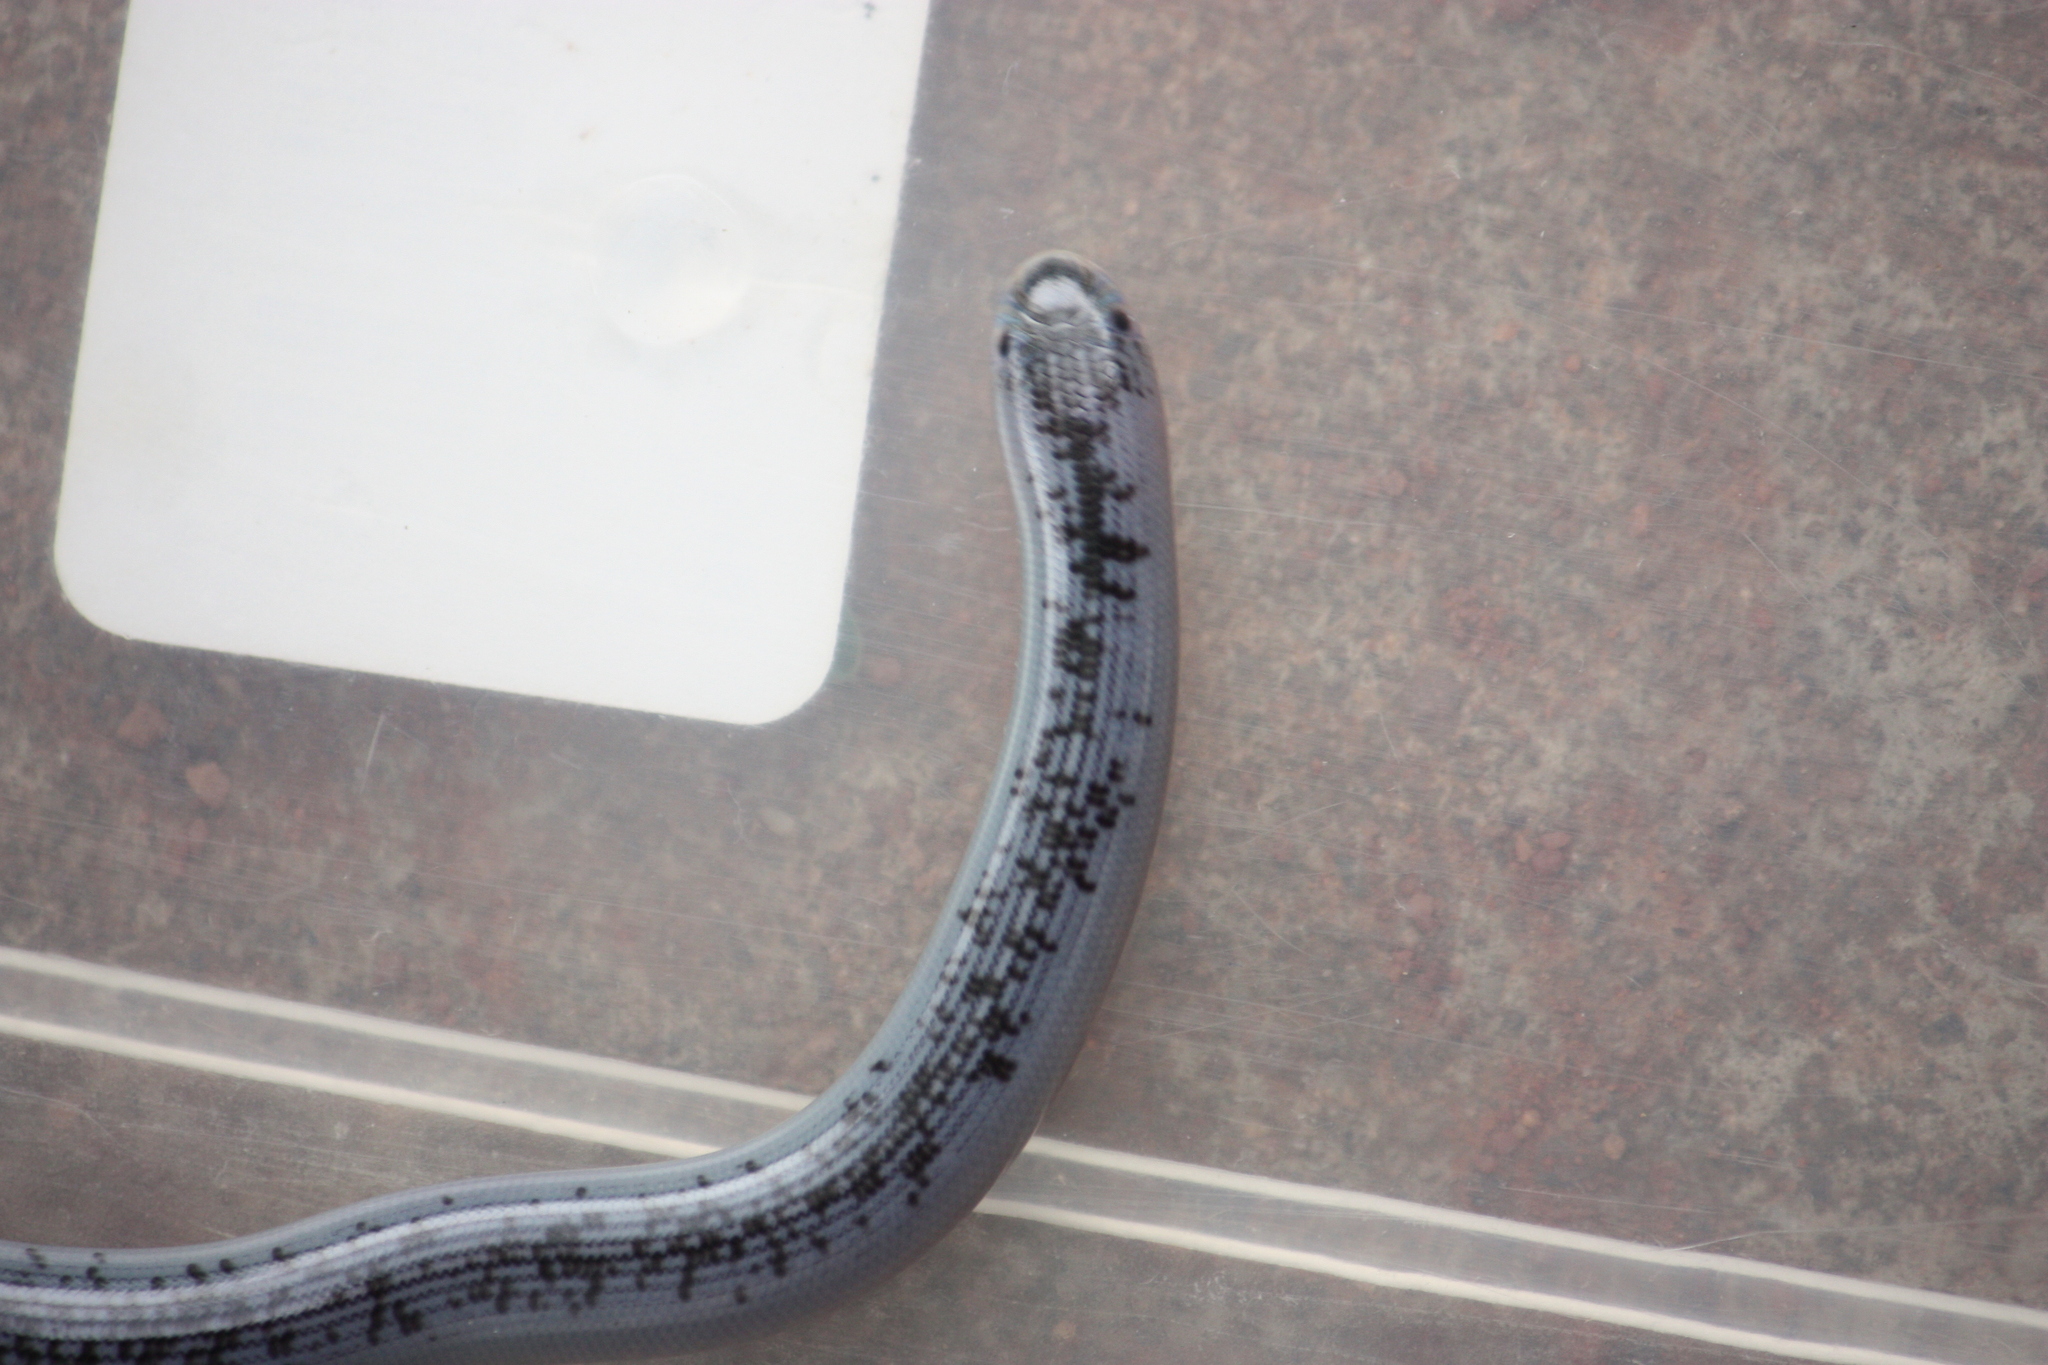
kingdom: Animalia
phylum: Chordata
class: Squamata
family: Typhlopidae
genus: Afrotyphlops
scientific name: Afrotyphlops schlegelii
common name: Schlegel's giant blind snake
